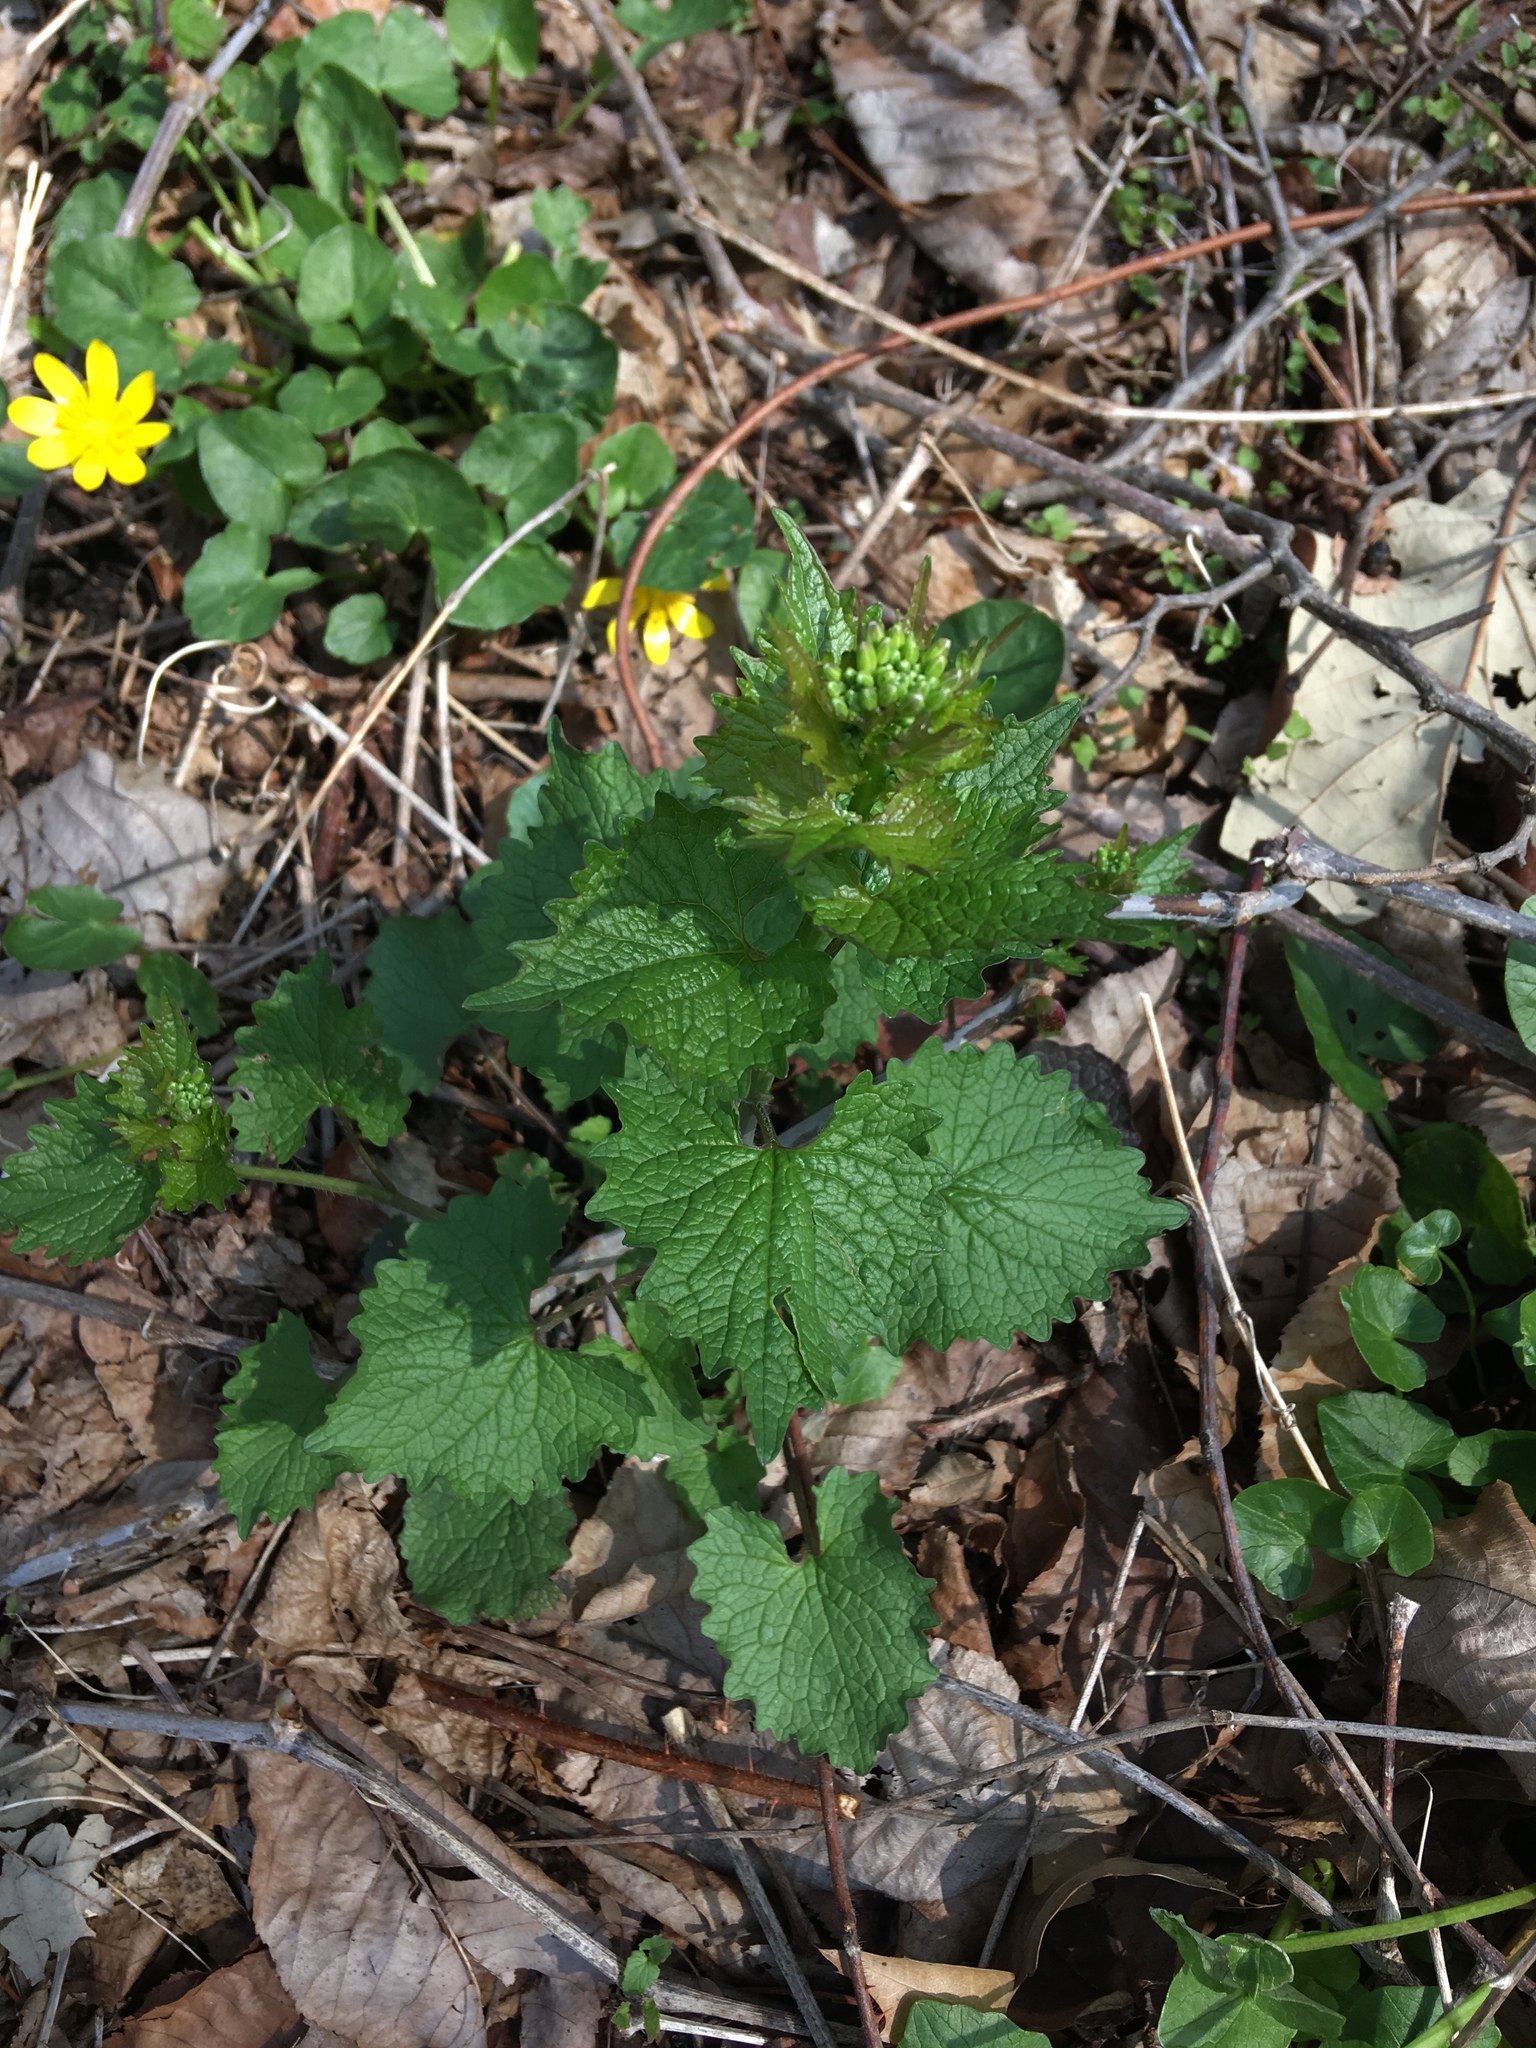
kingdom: Plantae
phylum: Tracheophyta
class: Magnoliopsida
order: Brassicales
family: Brassicaceae
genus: Alliaria
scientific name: Alliaria petiolata
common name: Garlic mustard
